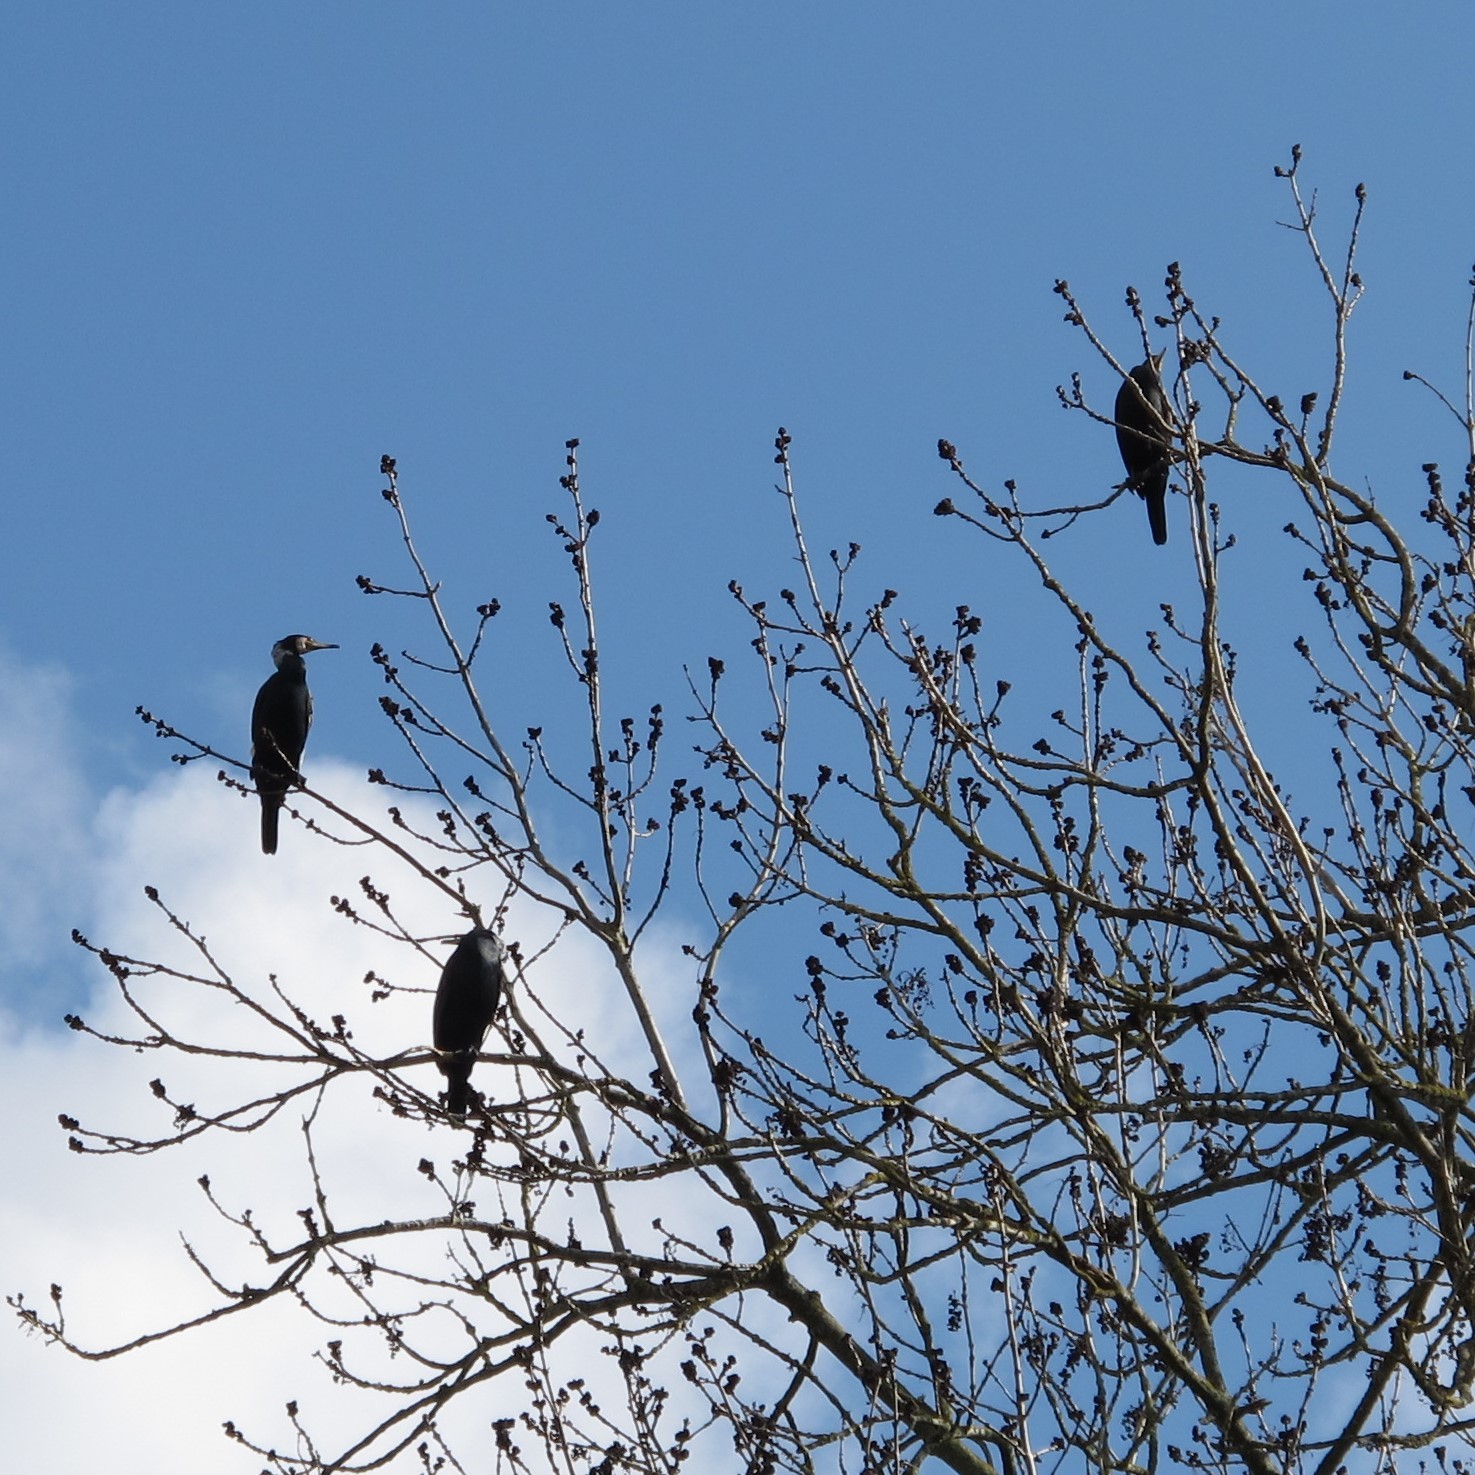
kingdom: Animalia
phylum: Chordata
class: Aves
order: Suliformes
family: Phalacrocoracidae
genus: Phalacrocorax
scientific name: Phalacrocorax carbo
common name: Great cormorant
